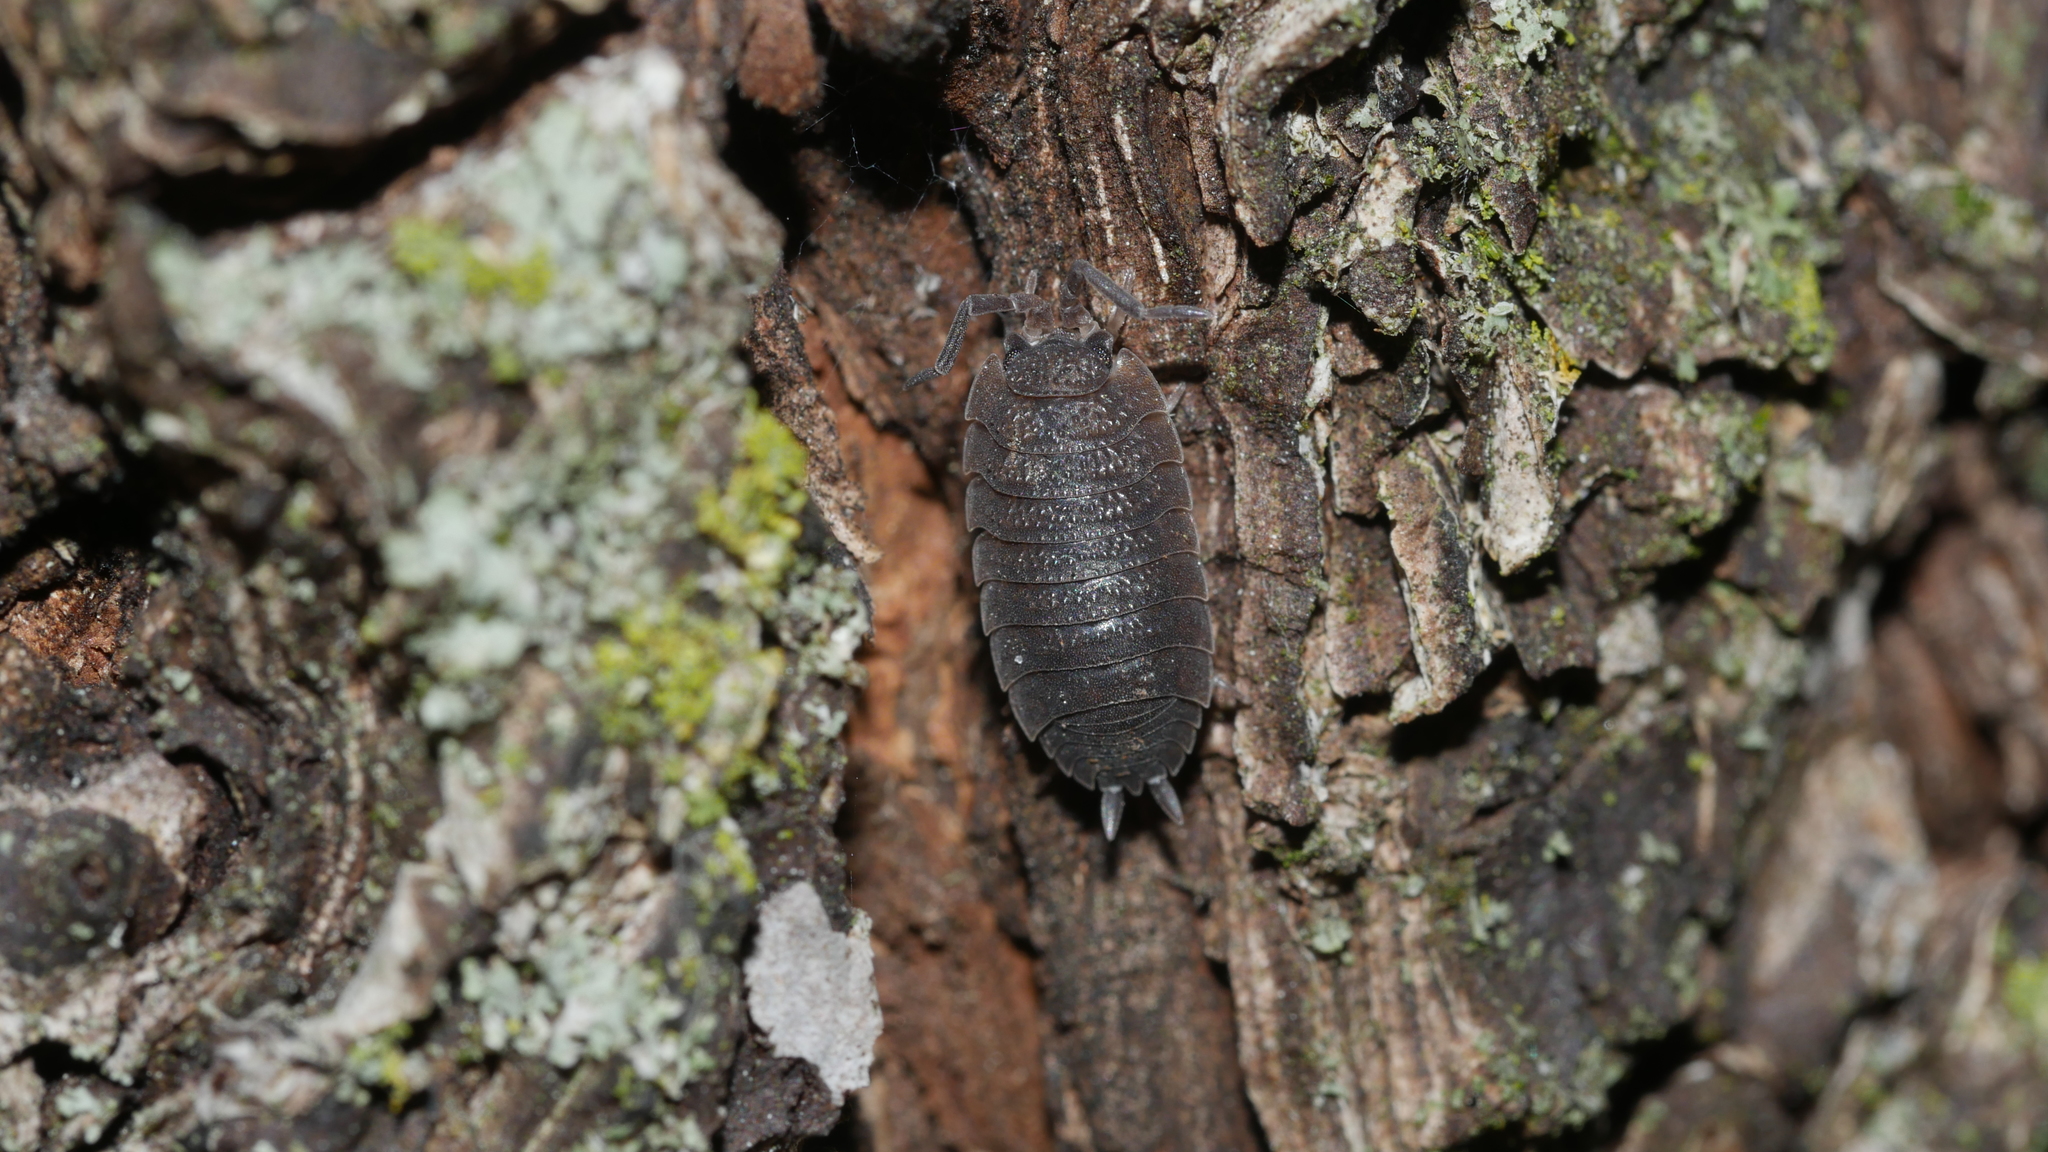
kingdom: Animalia
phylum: Arthropoda
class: Malacostraca
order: Isopoda
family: Porcellionidae
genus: Porcellio
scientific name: Porcellio scaber
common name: Common rough woodlouse
